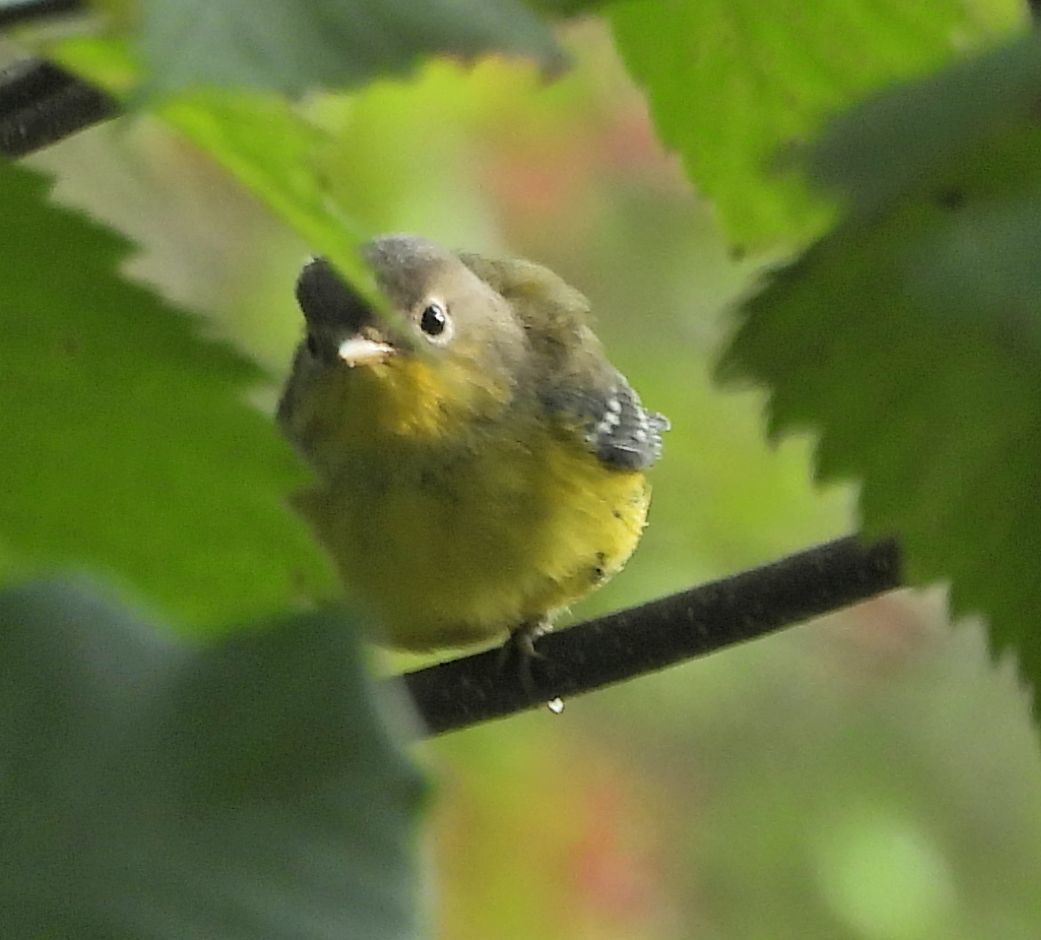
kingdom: Animalia
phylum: Chordata
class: Aves
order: Passeriformes
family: Parulidae
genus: Setophaga
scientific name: Setophaga magnolia
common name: Magnolia warbler
